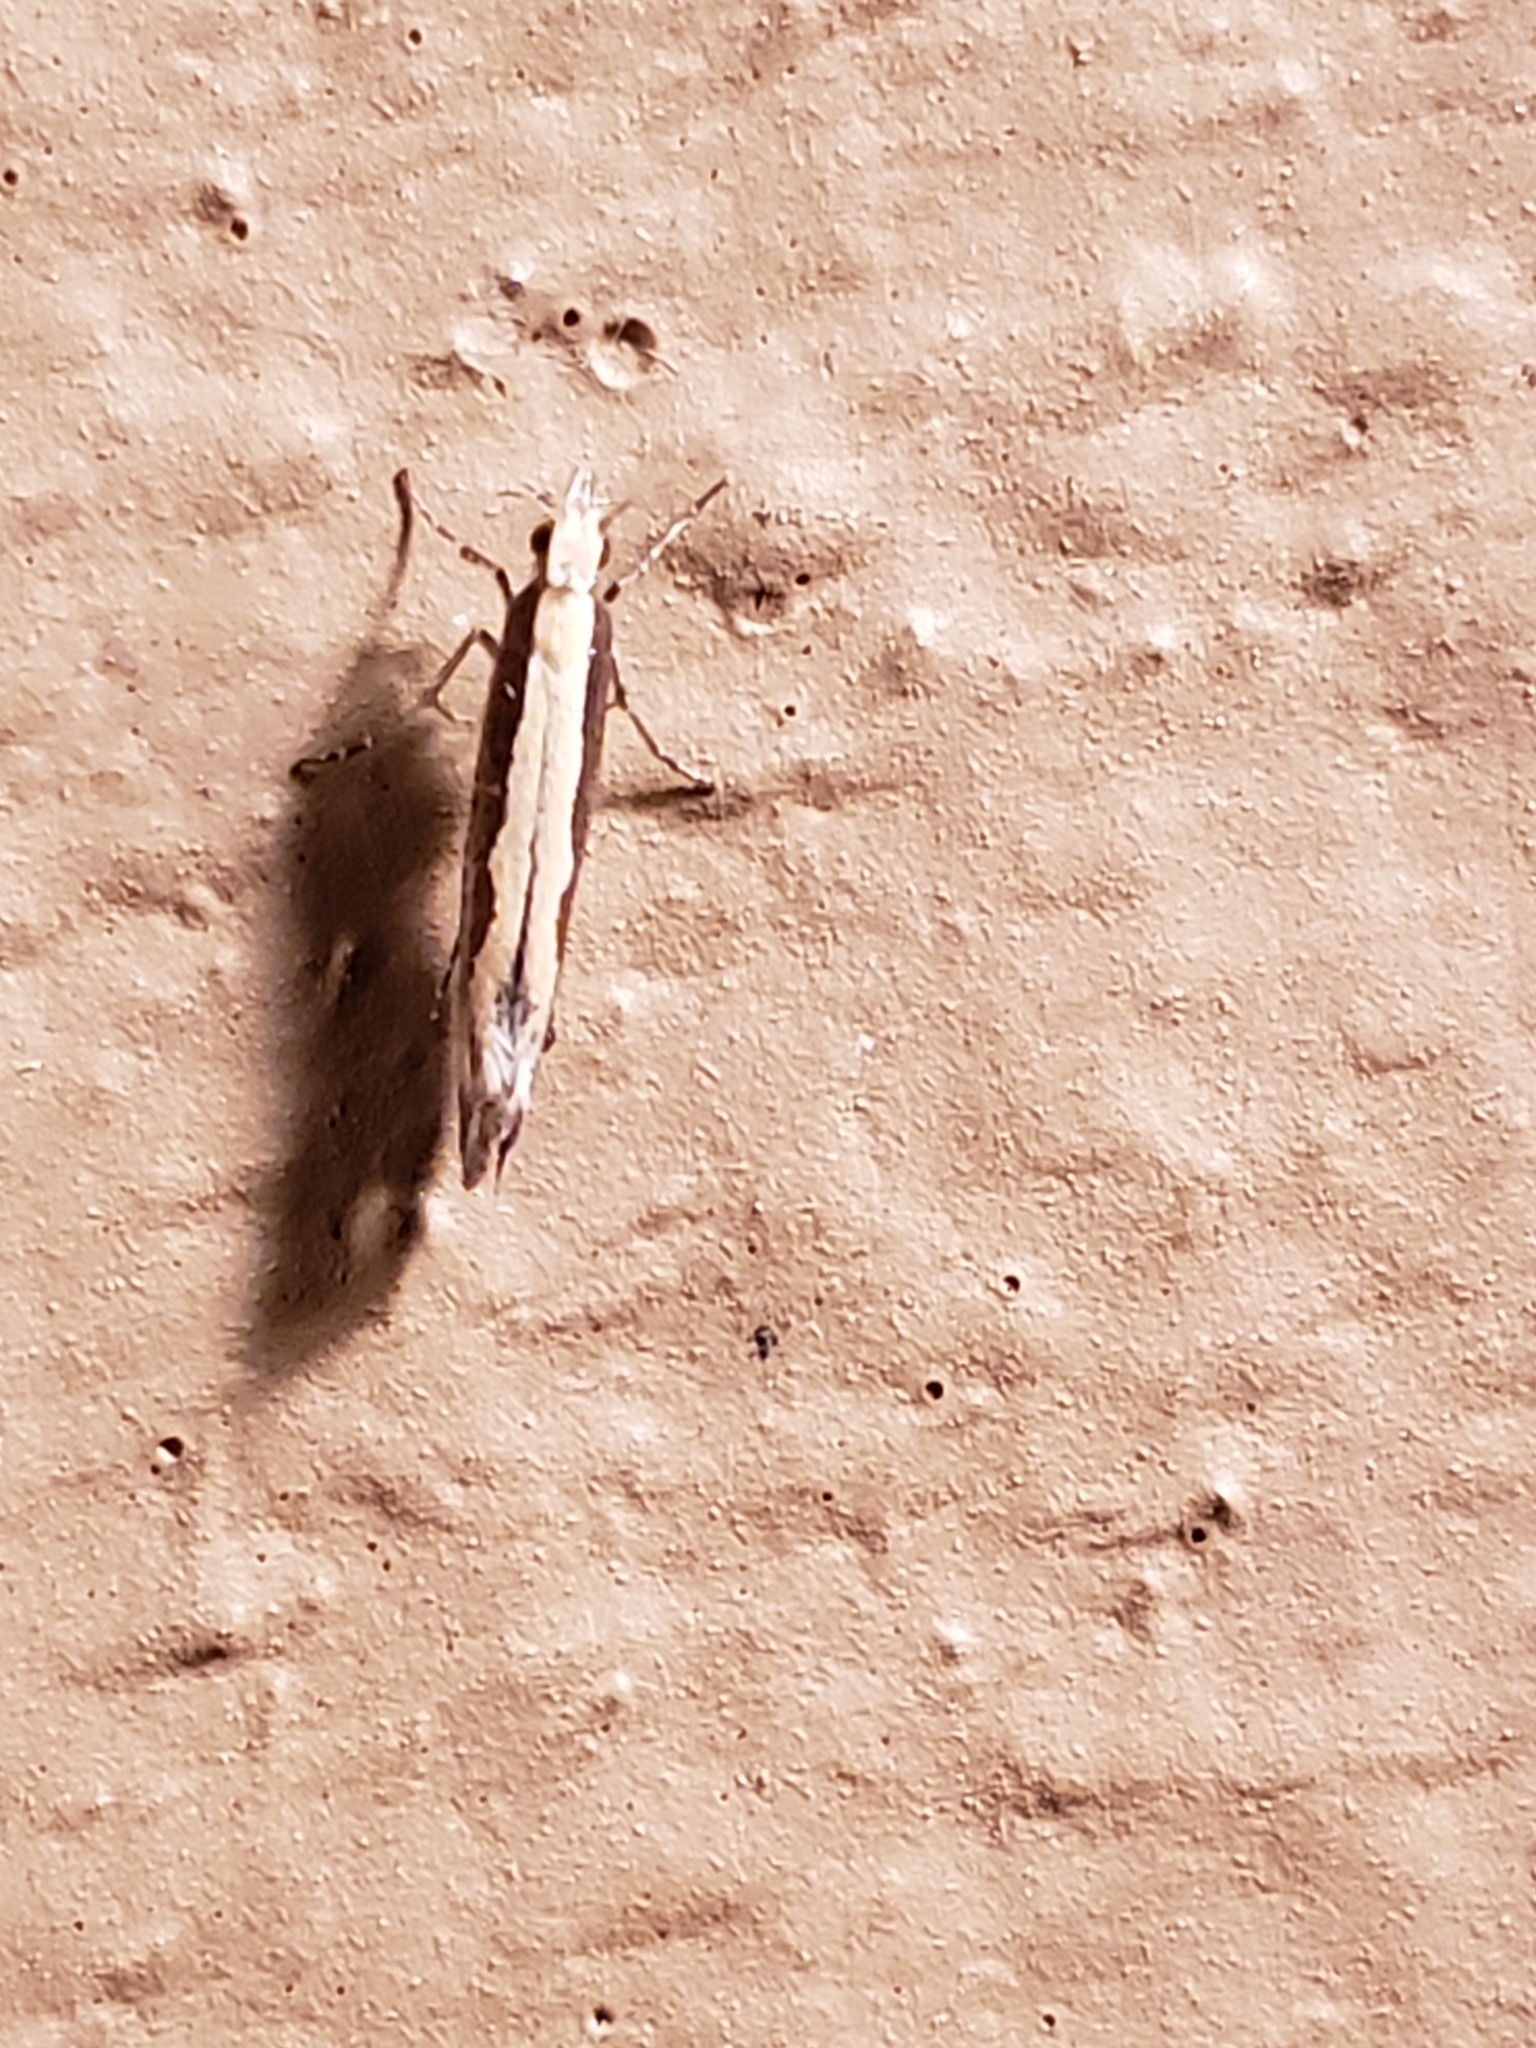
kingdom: Animalia
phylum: Arthropoda
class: Insecta
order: Lepidoptera
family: Plutellidae
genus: Plutella
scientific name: Plutella xylostella
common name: Diamond-back moth
